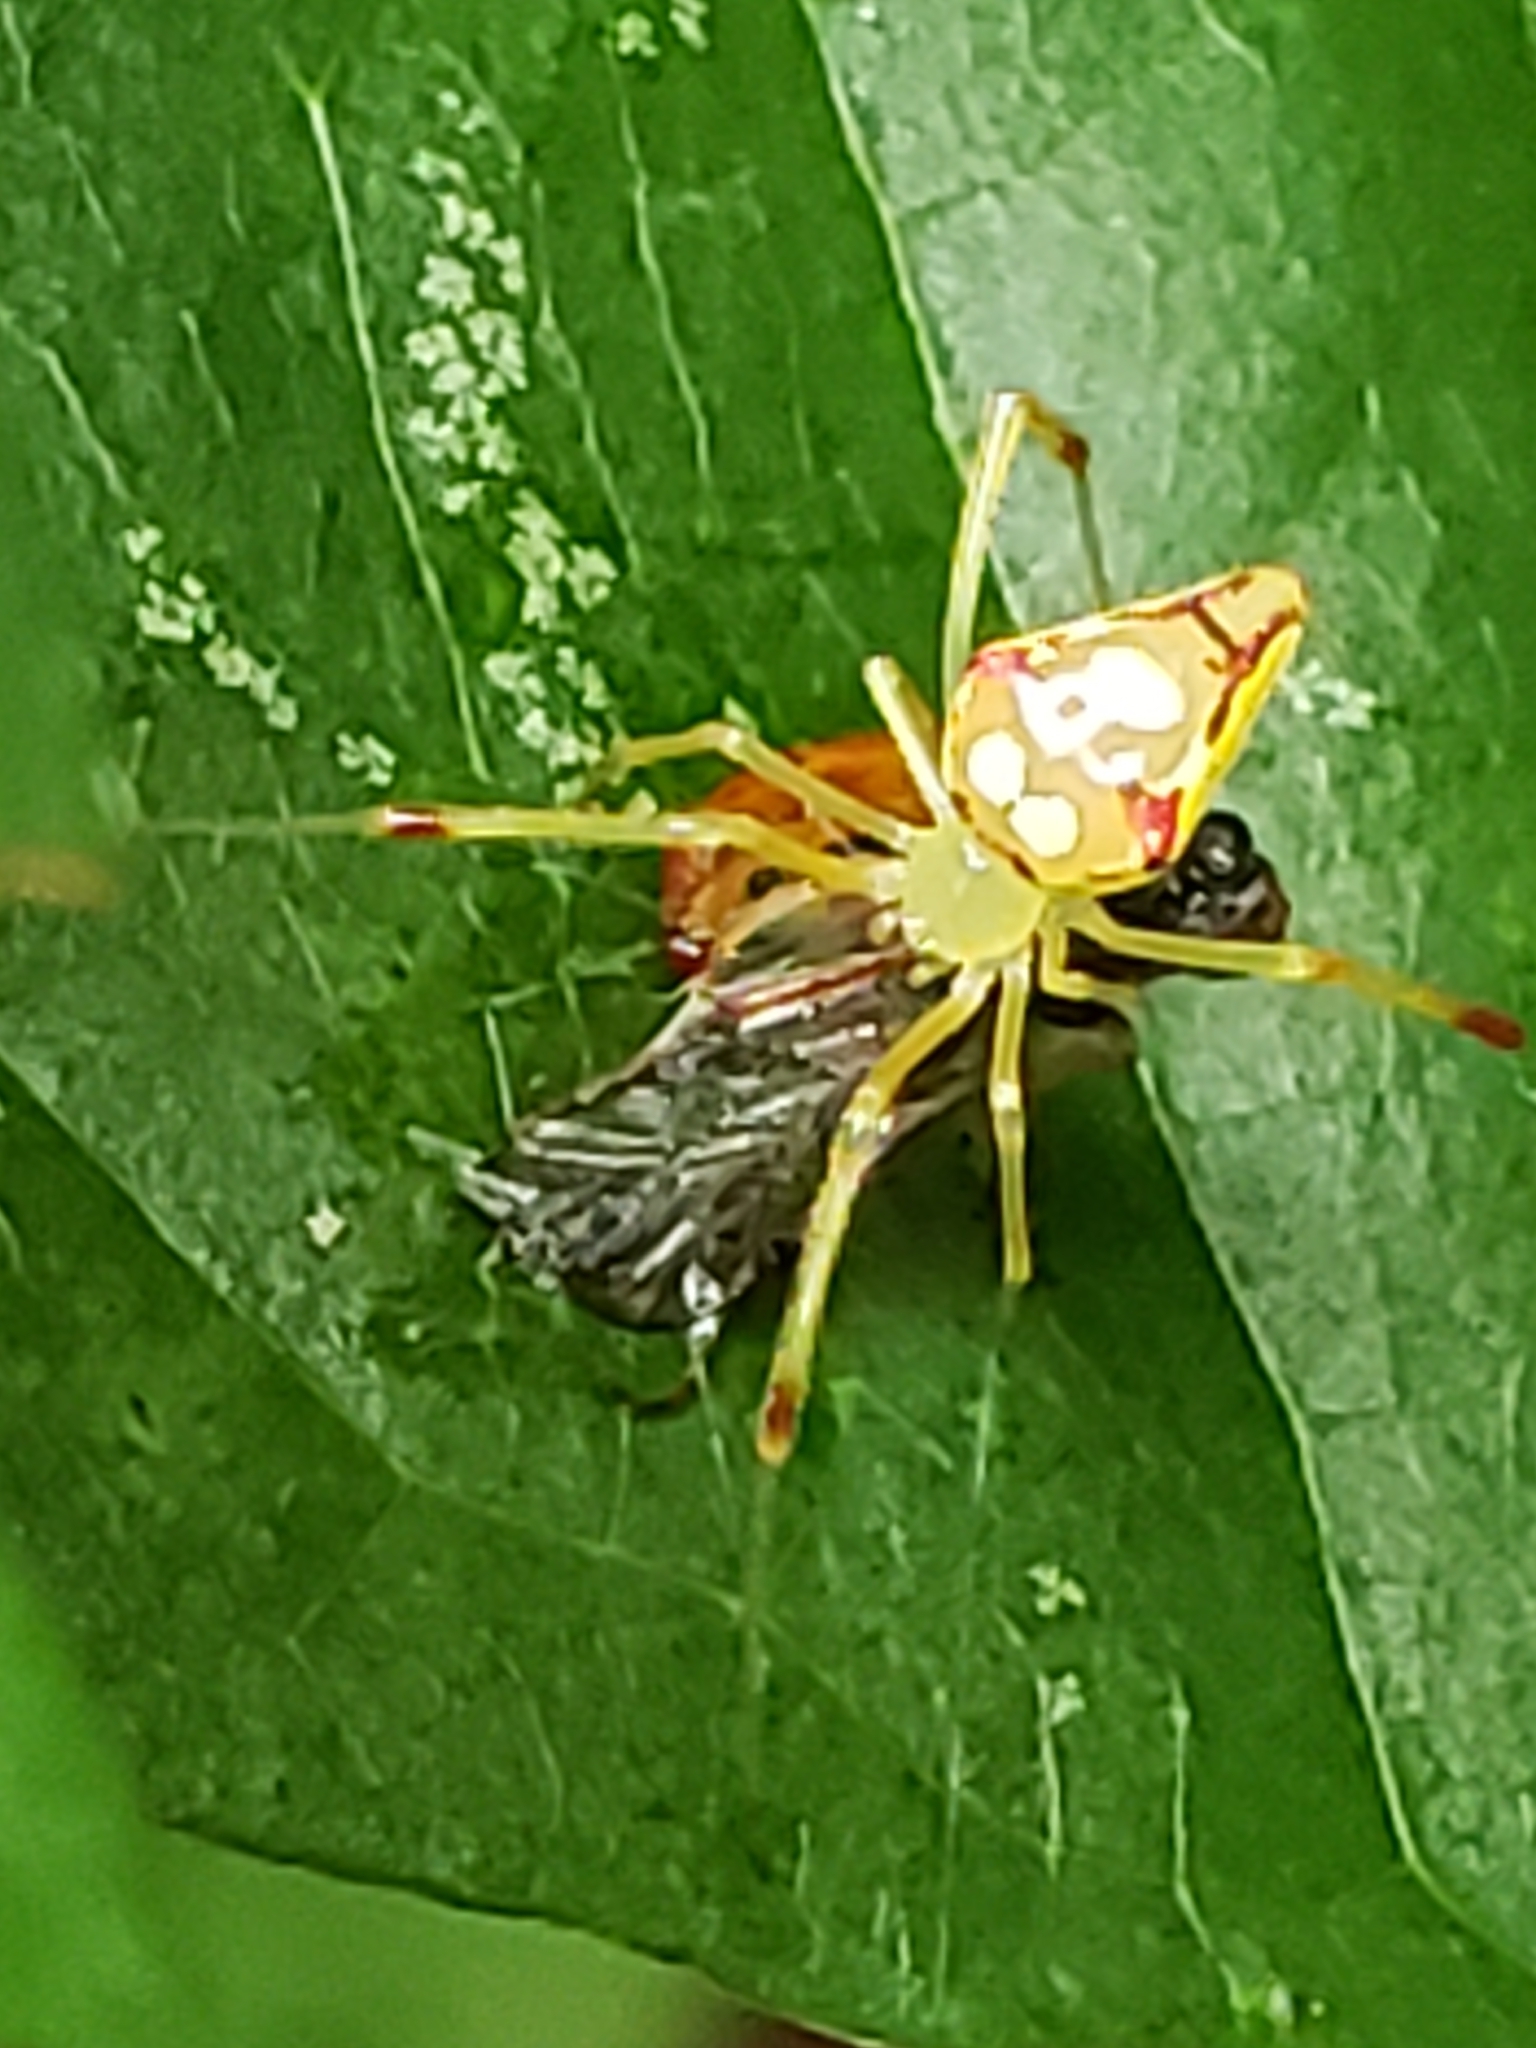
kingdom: Animalia
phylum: Arthropoda
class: Arachnida
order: Araneae
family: Theridiidae
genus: Spintharus
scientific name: Spintharus flavidus
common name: Cobweb spiders
